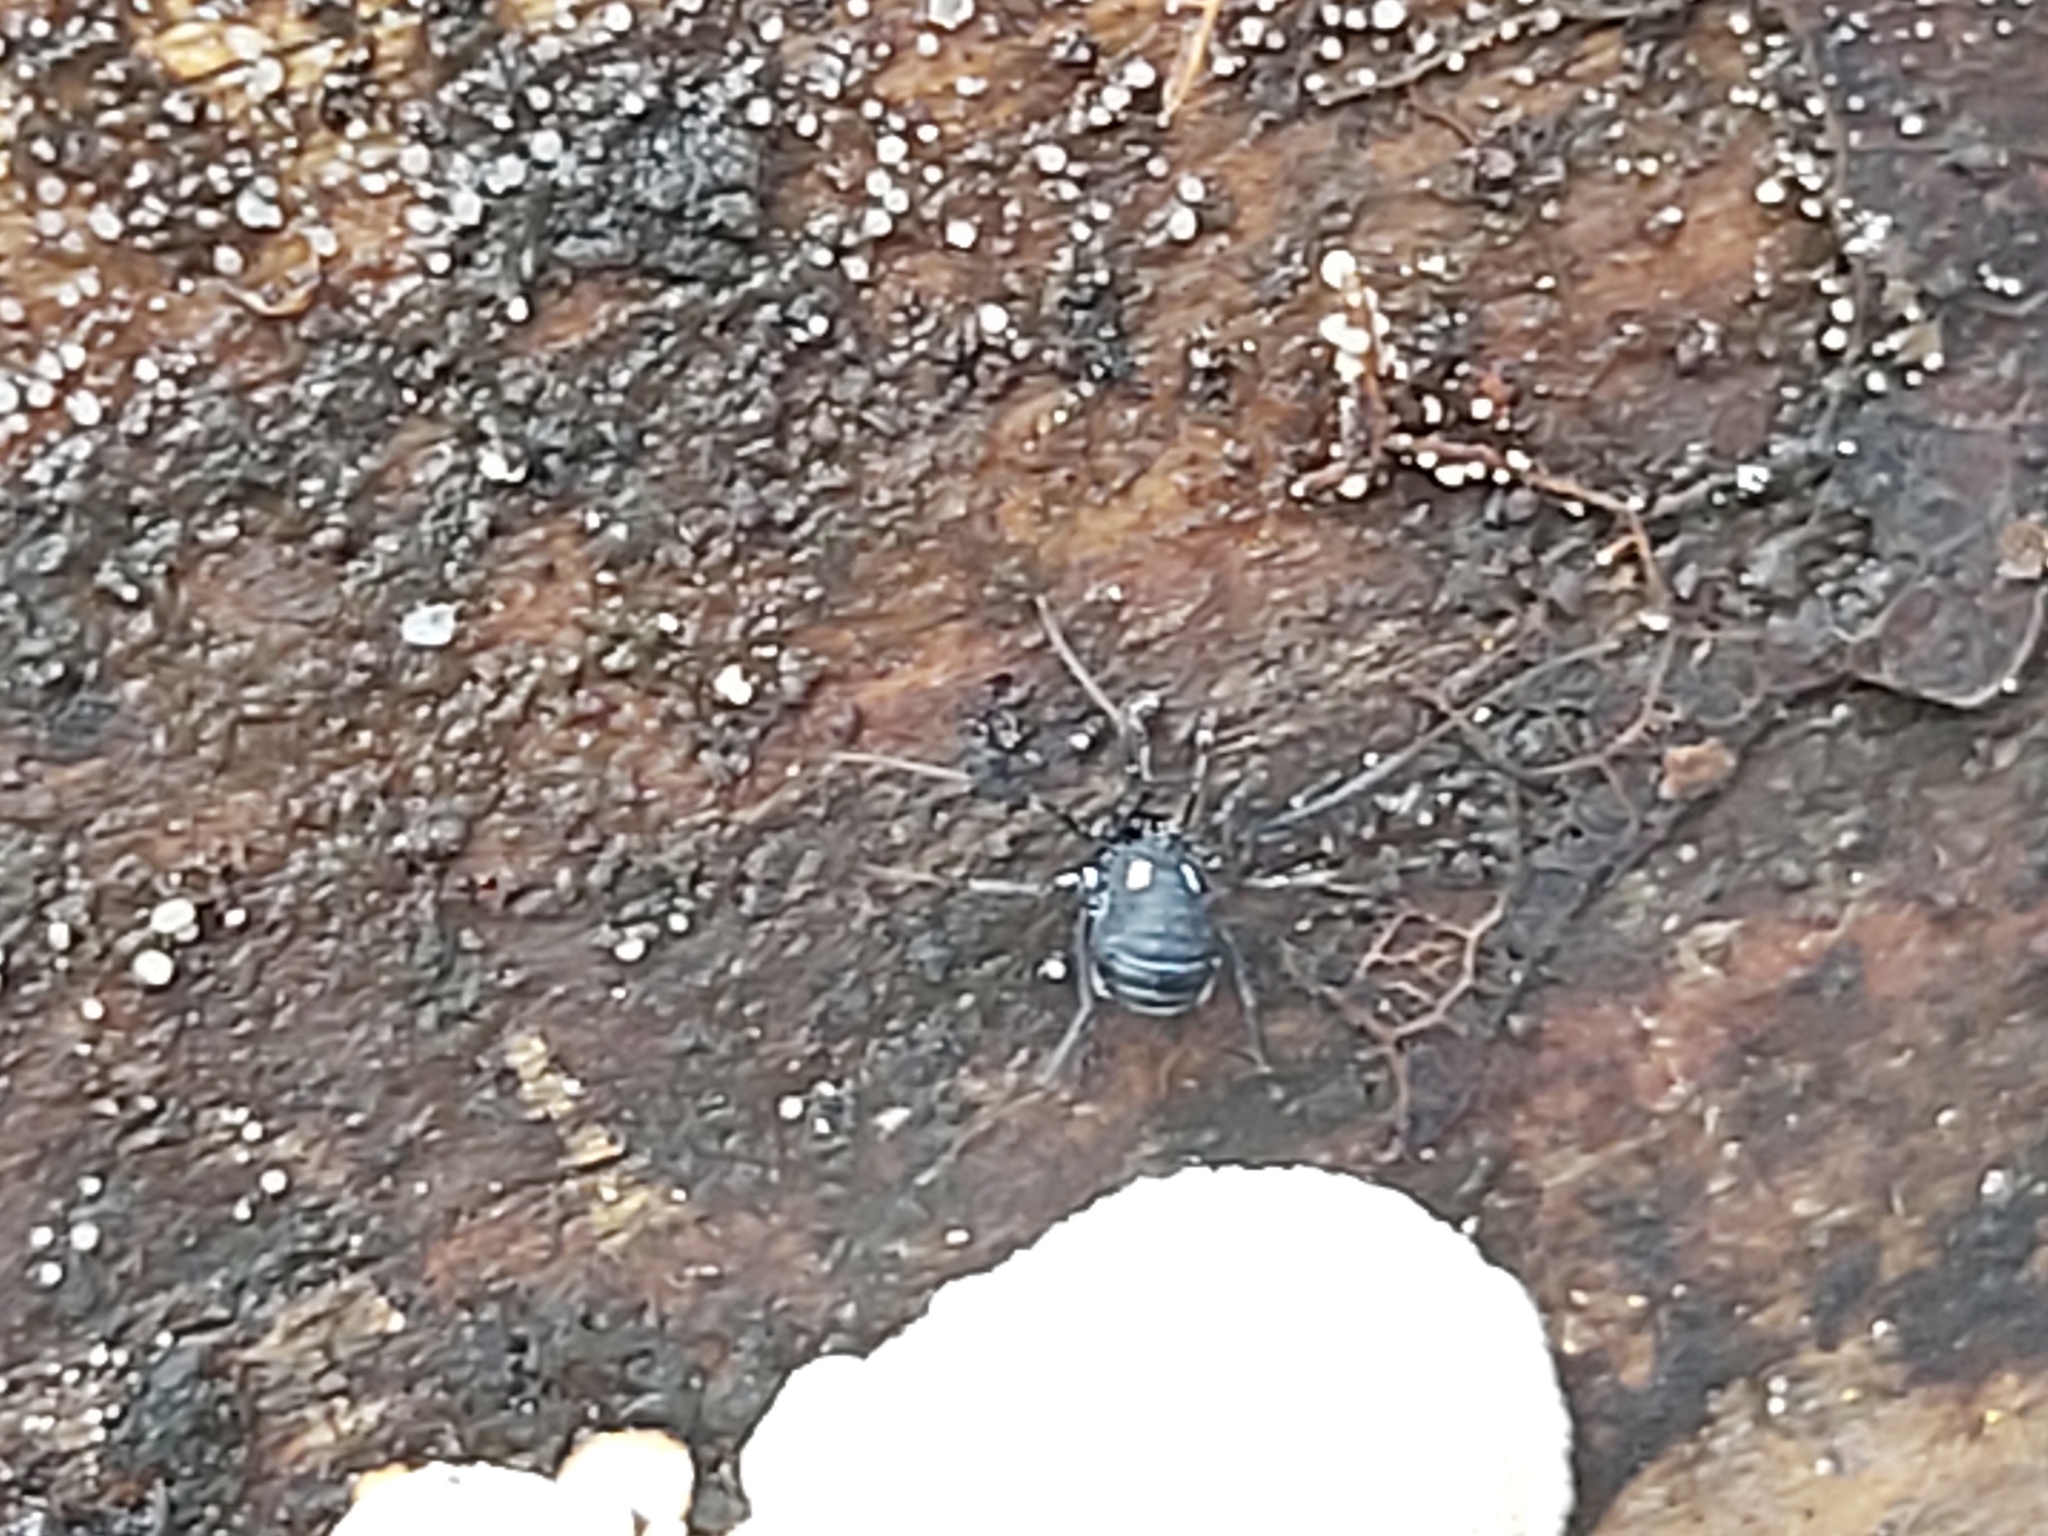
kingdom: Animalia
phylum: Arthropoda
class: Arachnida
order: Opiliones
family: Nemastomatidae
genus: Nemastoma
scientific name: Nemastoma lugubre
